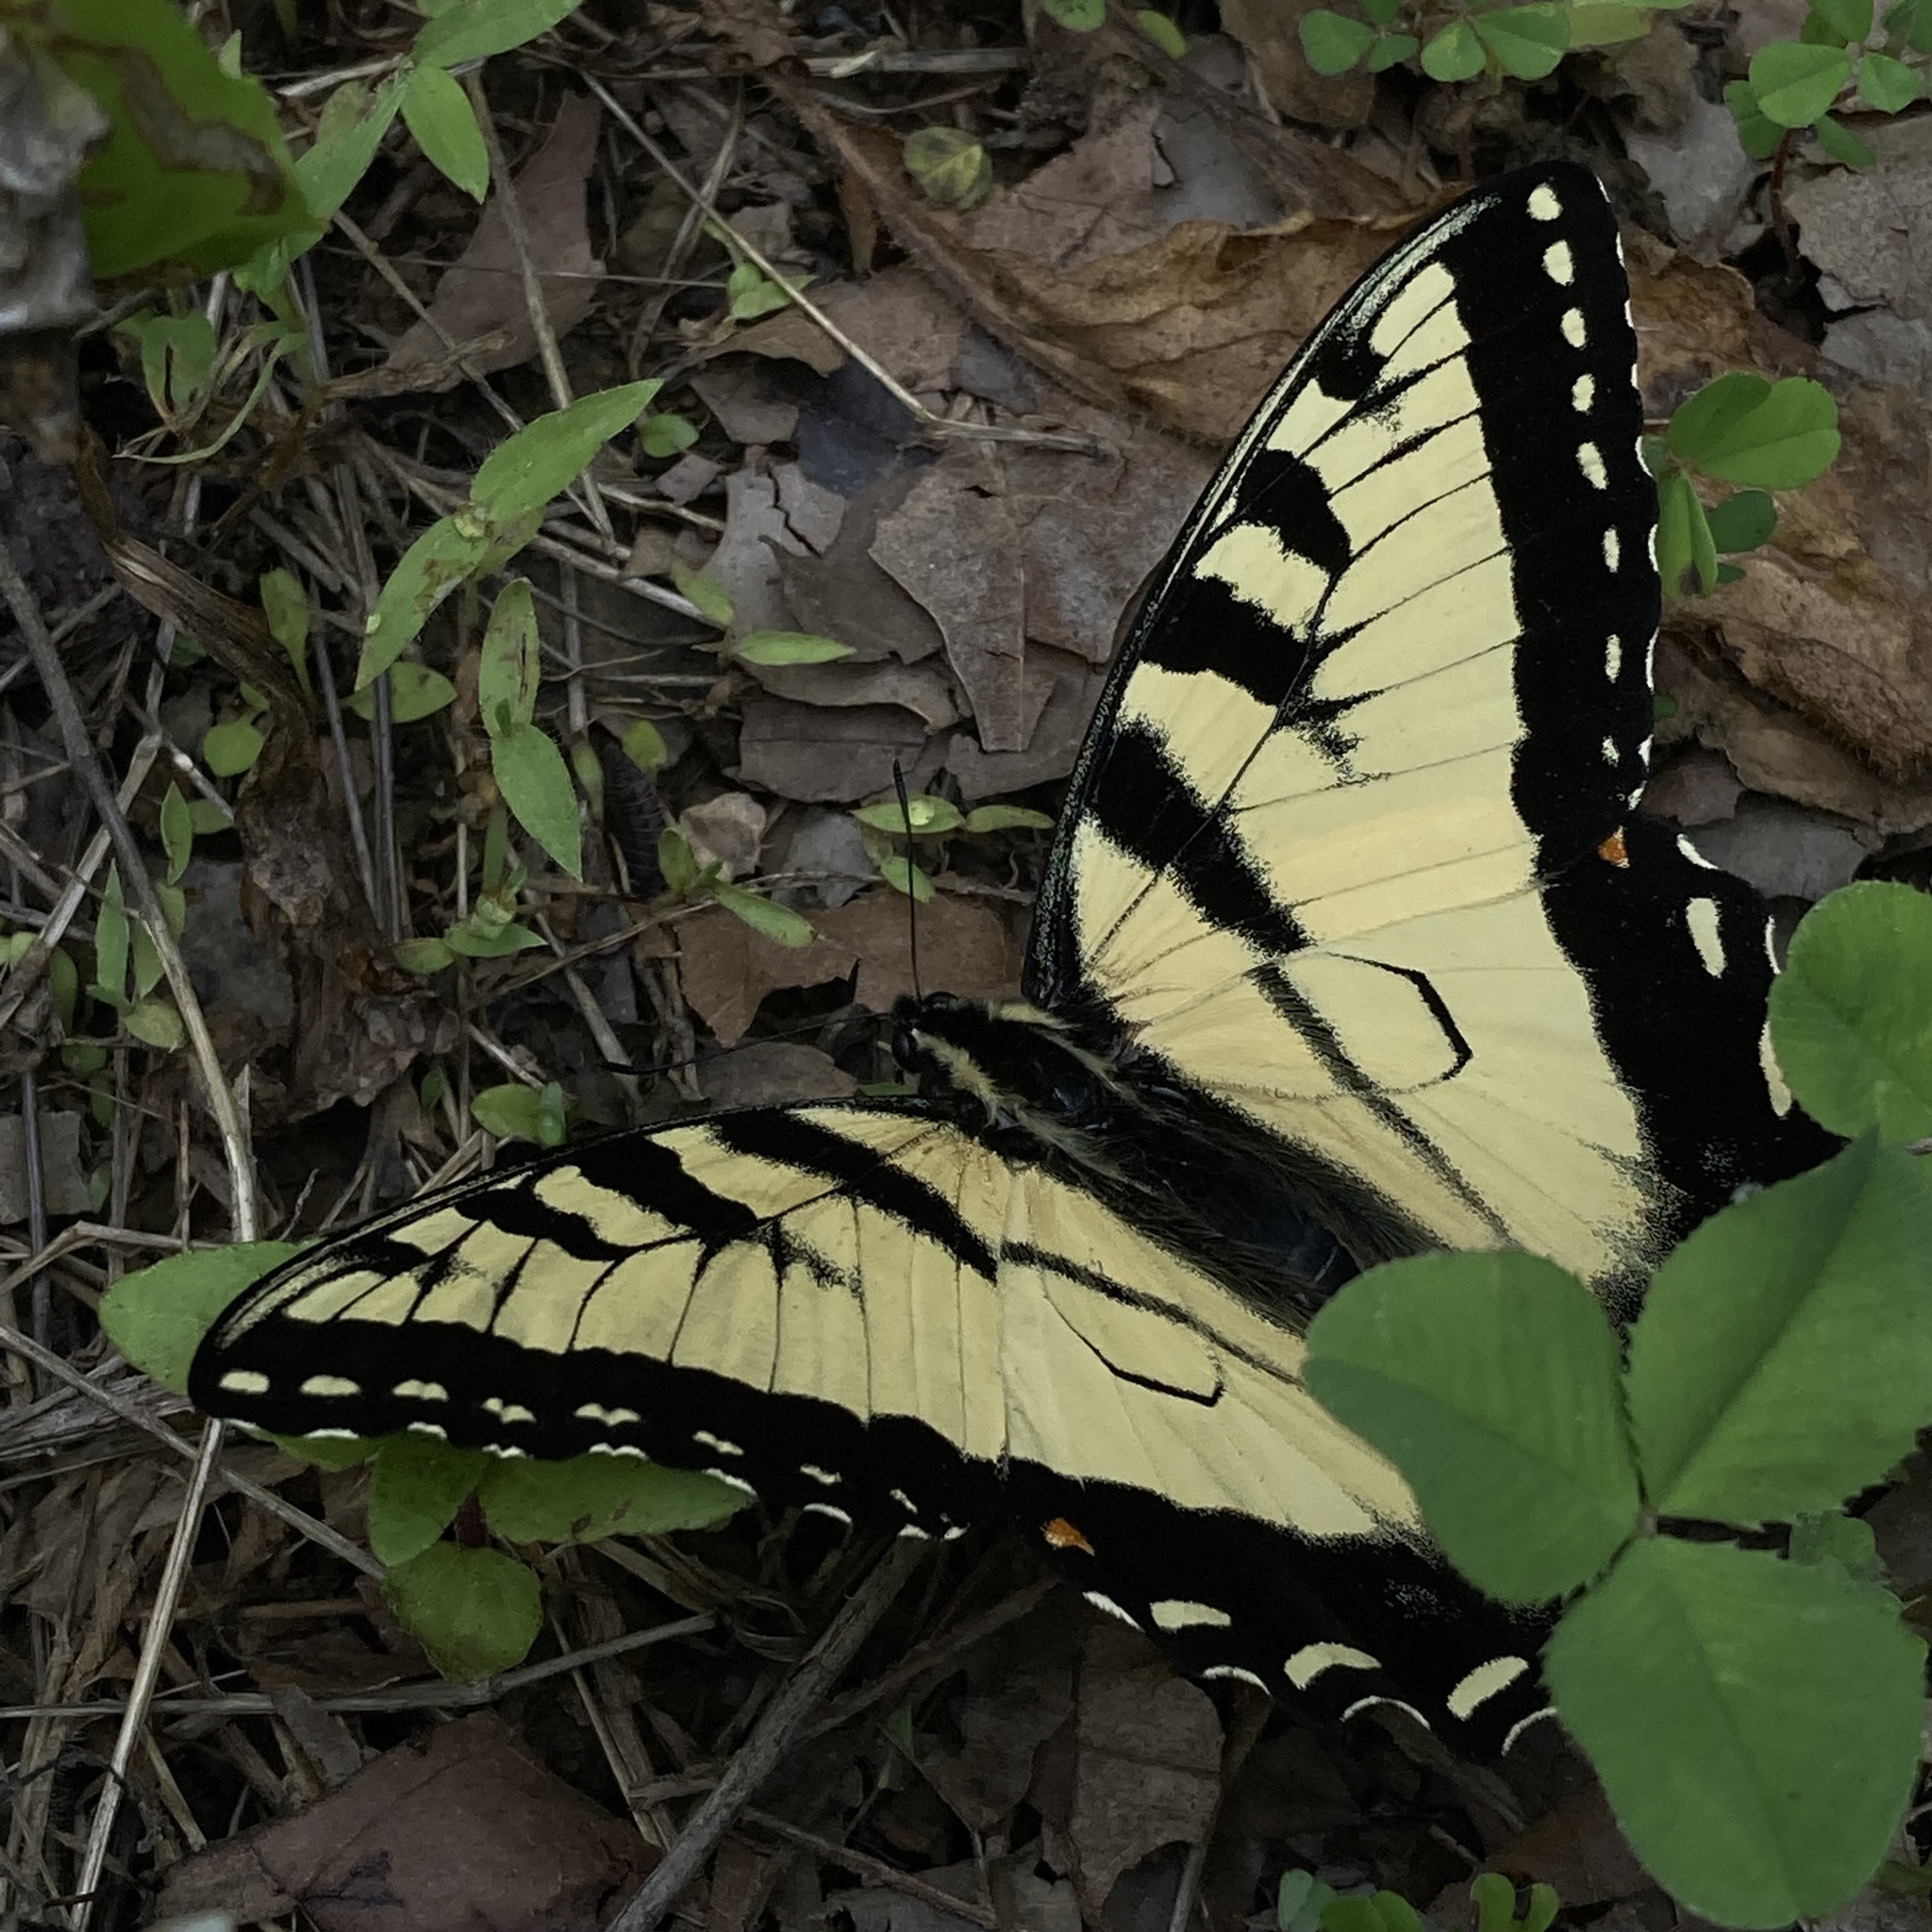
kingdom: Animalia
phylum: Arthropoda
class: Insecta
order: Lepidoptera
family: Papilionidae
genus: Papilio
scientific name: Papilio glaucus
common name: Tiger swallowtail
